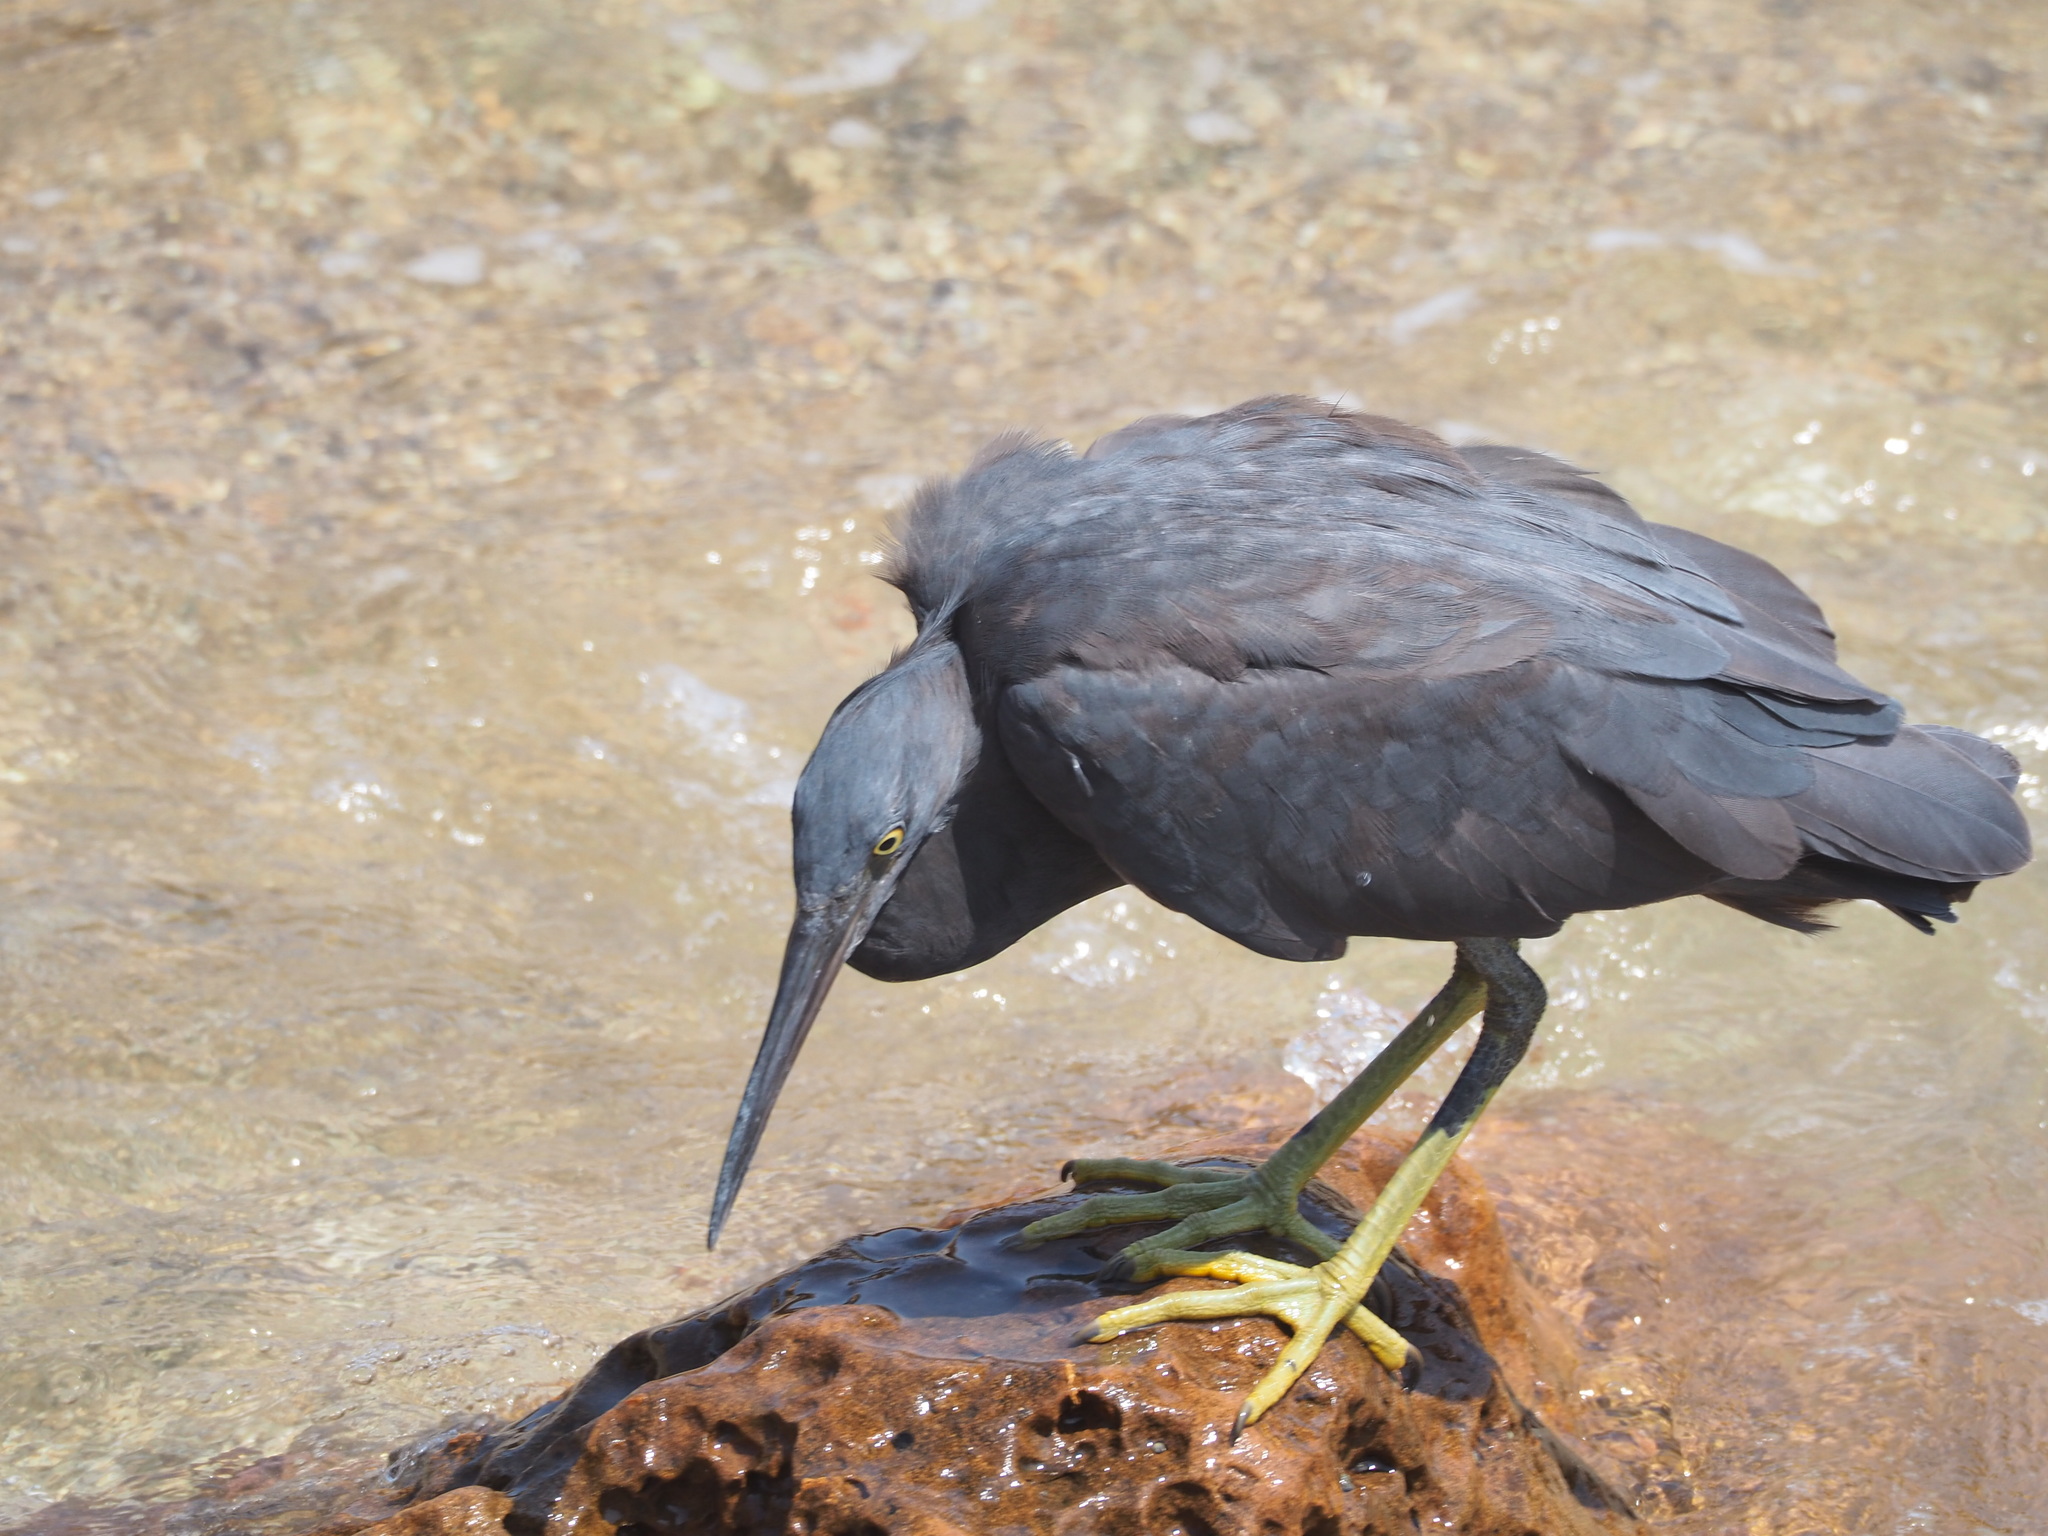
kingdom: Animalia
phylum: Chordata
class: Aves
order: Pelecaniformes
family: Ardeidae
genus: Egretta
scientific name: Egretta sacra
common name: Pacific reef heron
